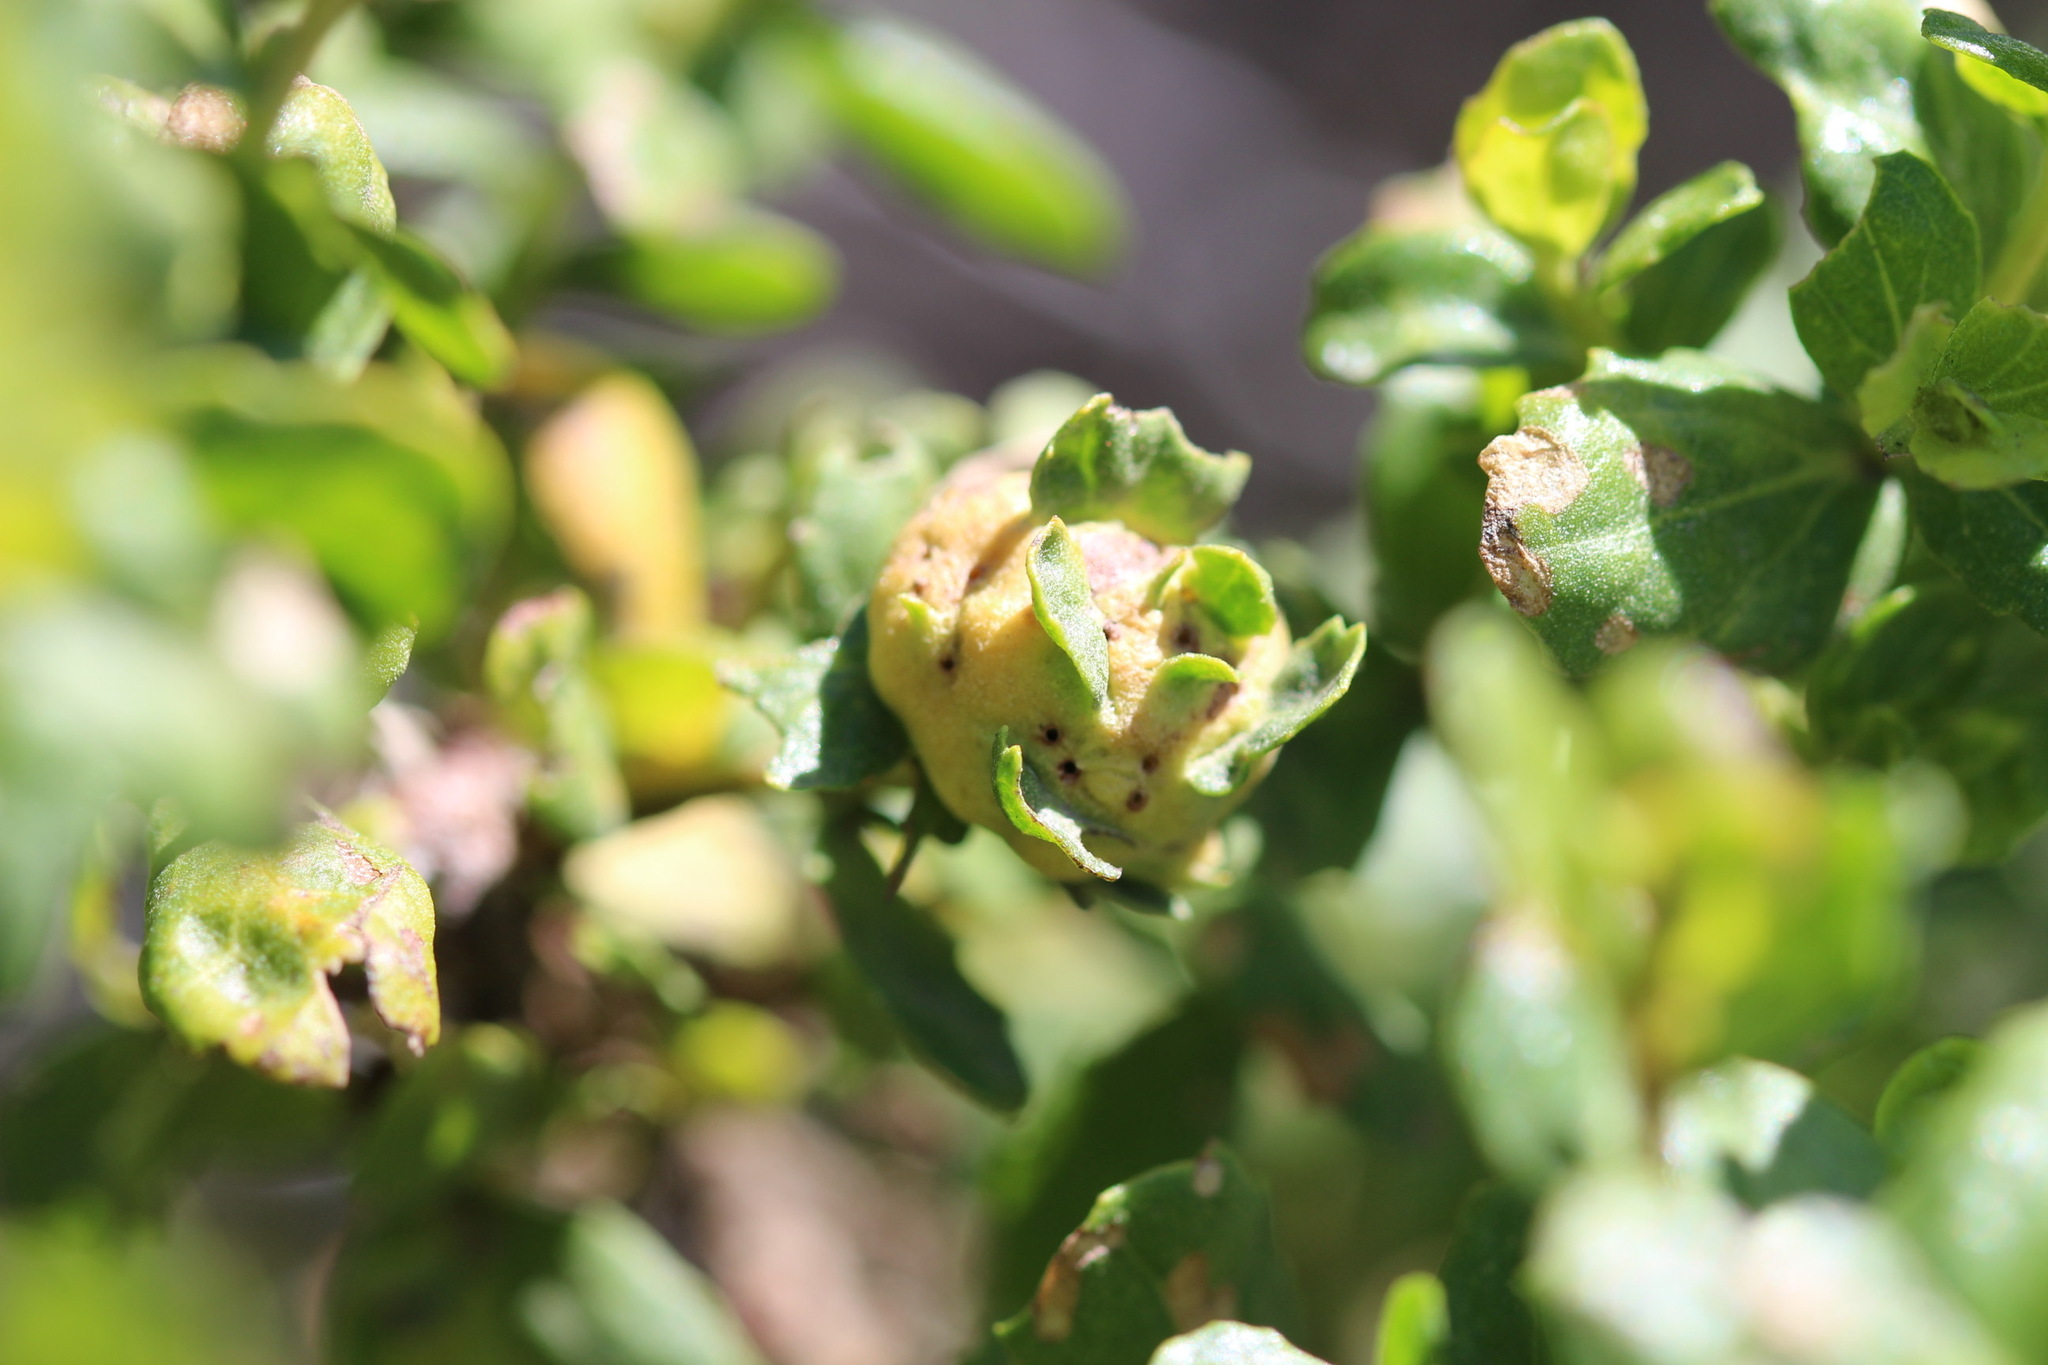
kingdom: Animalia
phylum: Arthropoda
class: Insecta
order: Diptera
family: Cecidomyiidae
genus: Rhopalomyia
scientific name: Rhopalomyia californica
